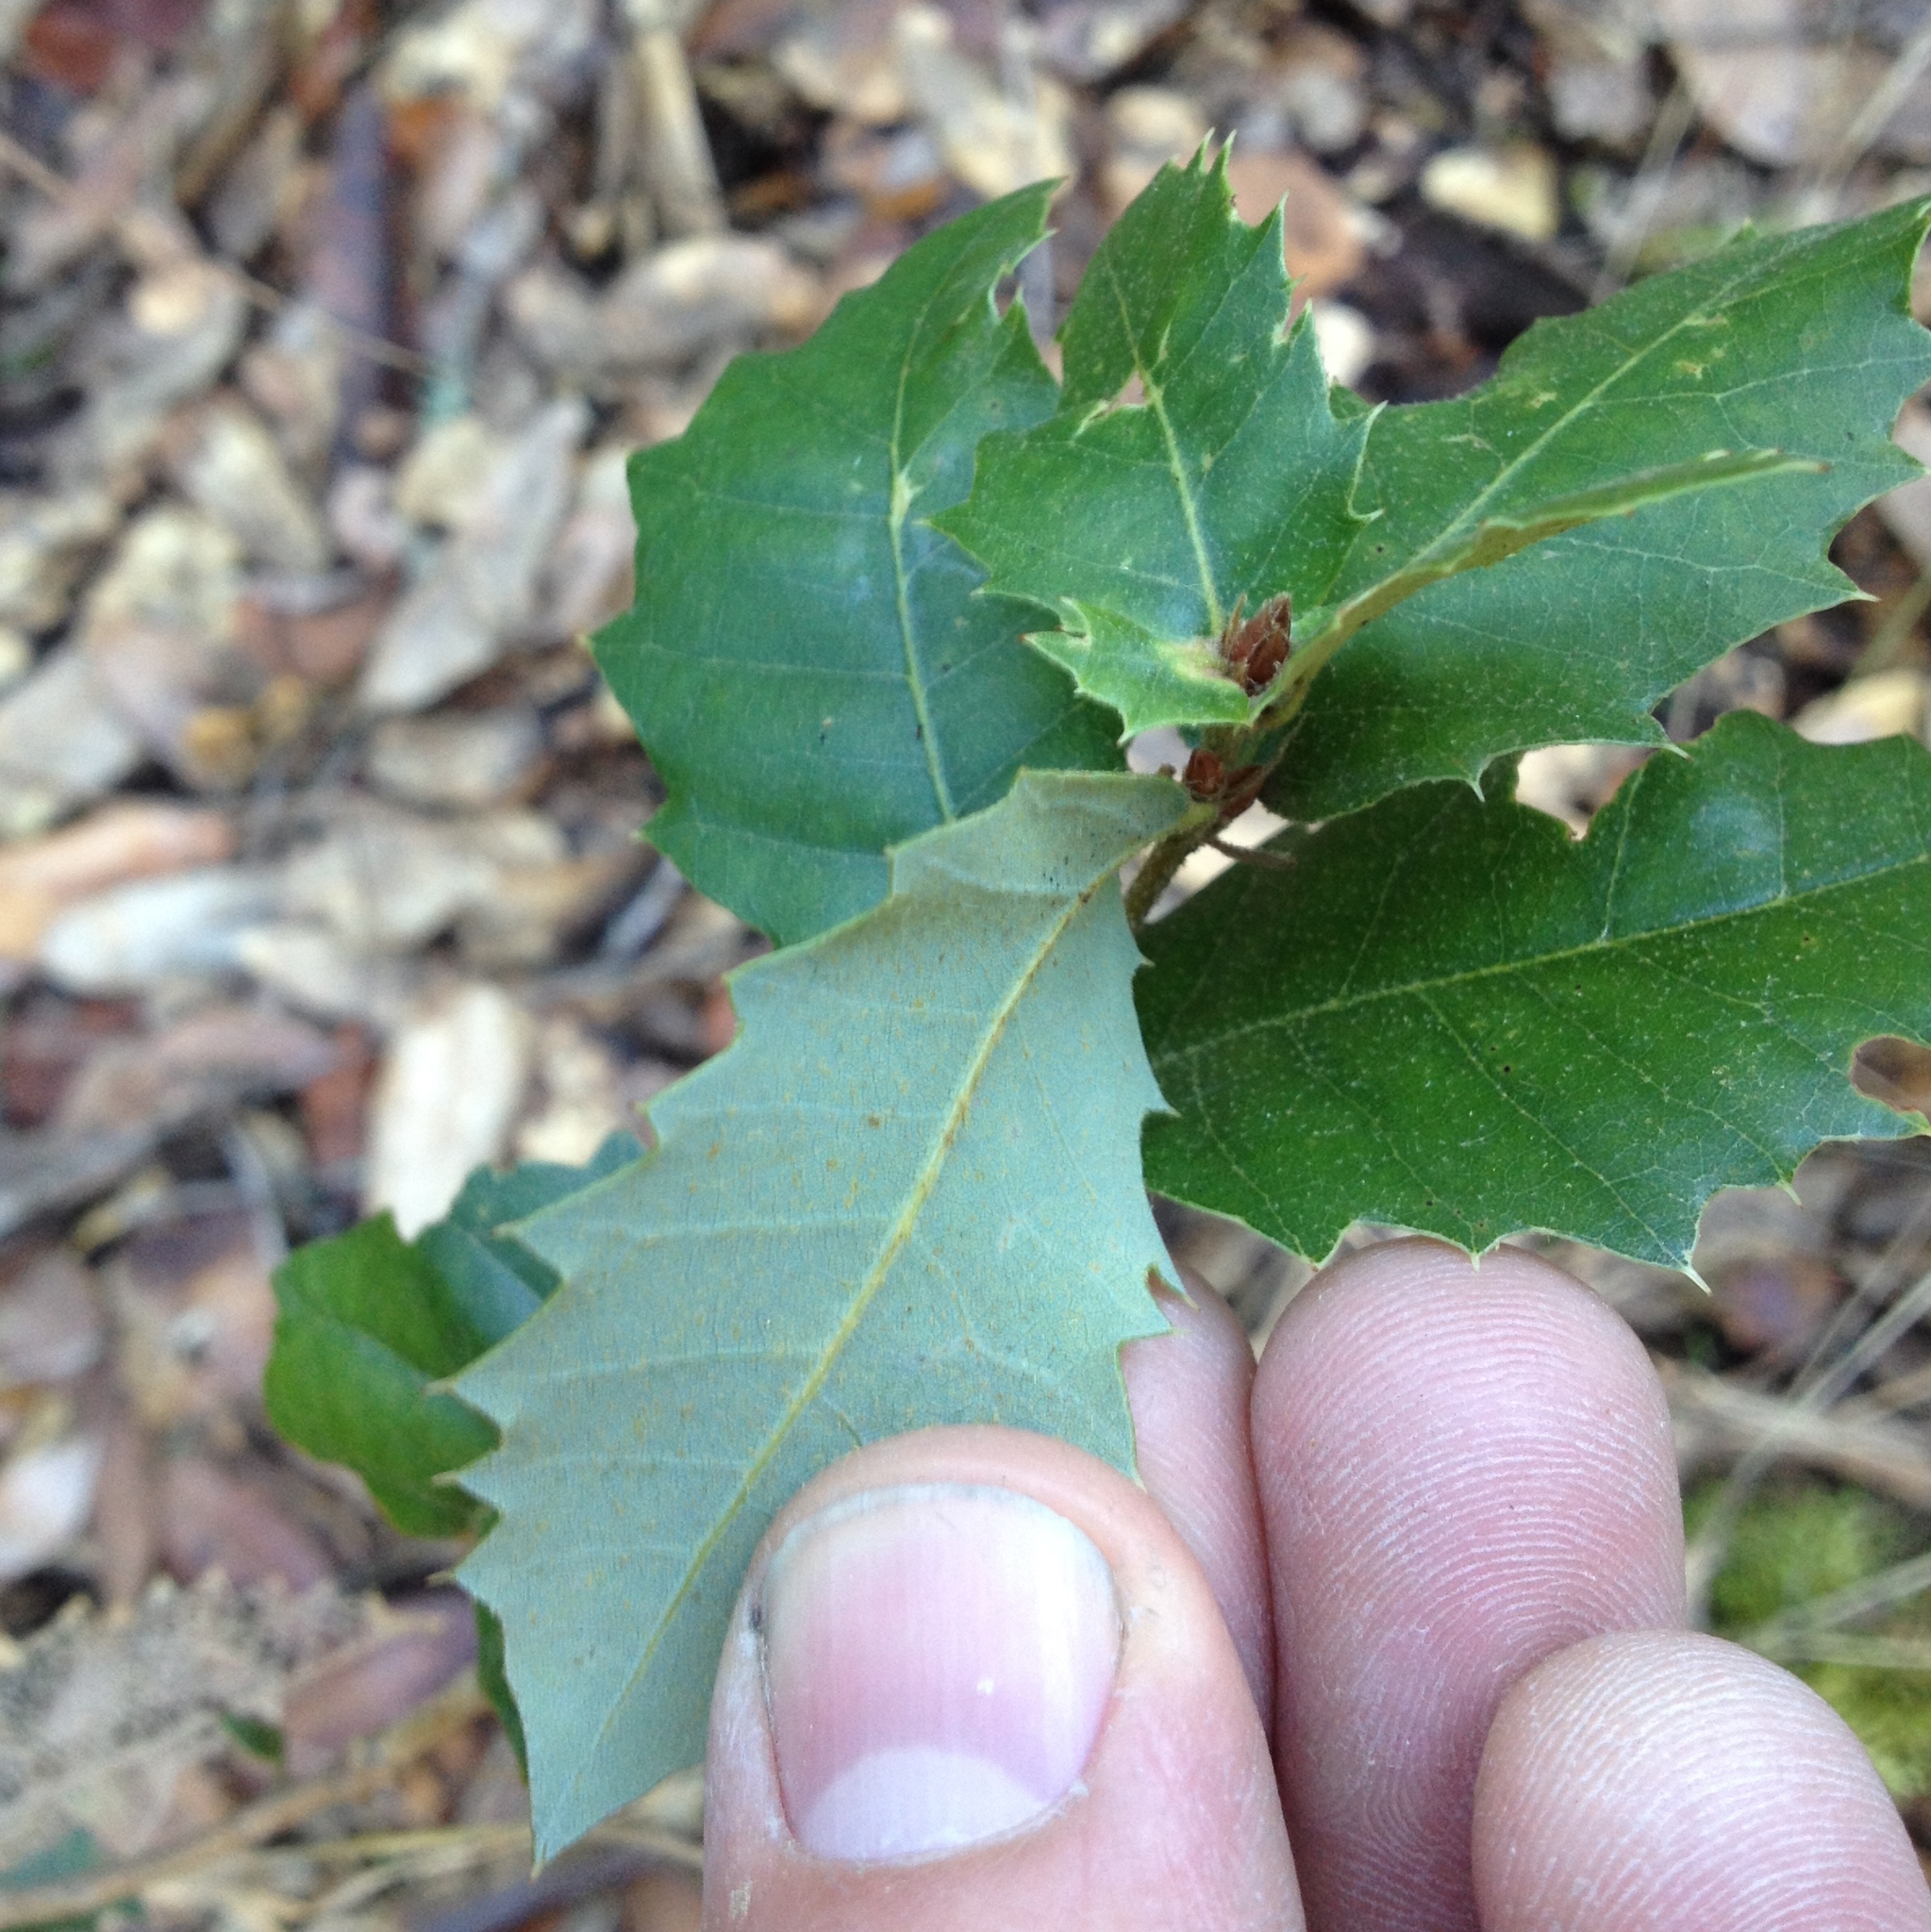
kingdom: Plantae
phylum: Tracheophyta
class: Magnoliopsida
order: Fagales
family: Fagaceae
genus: Quercus
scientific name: Quercus chrysolepis
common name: Canyon live oak
